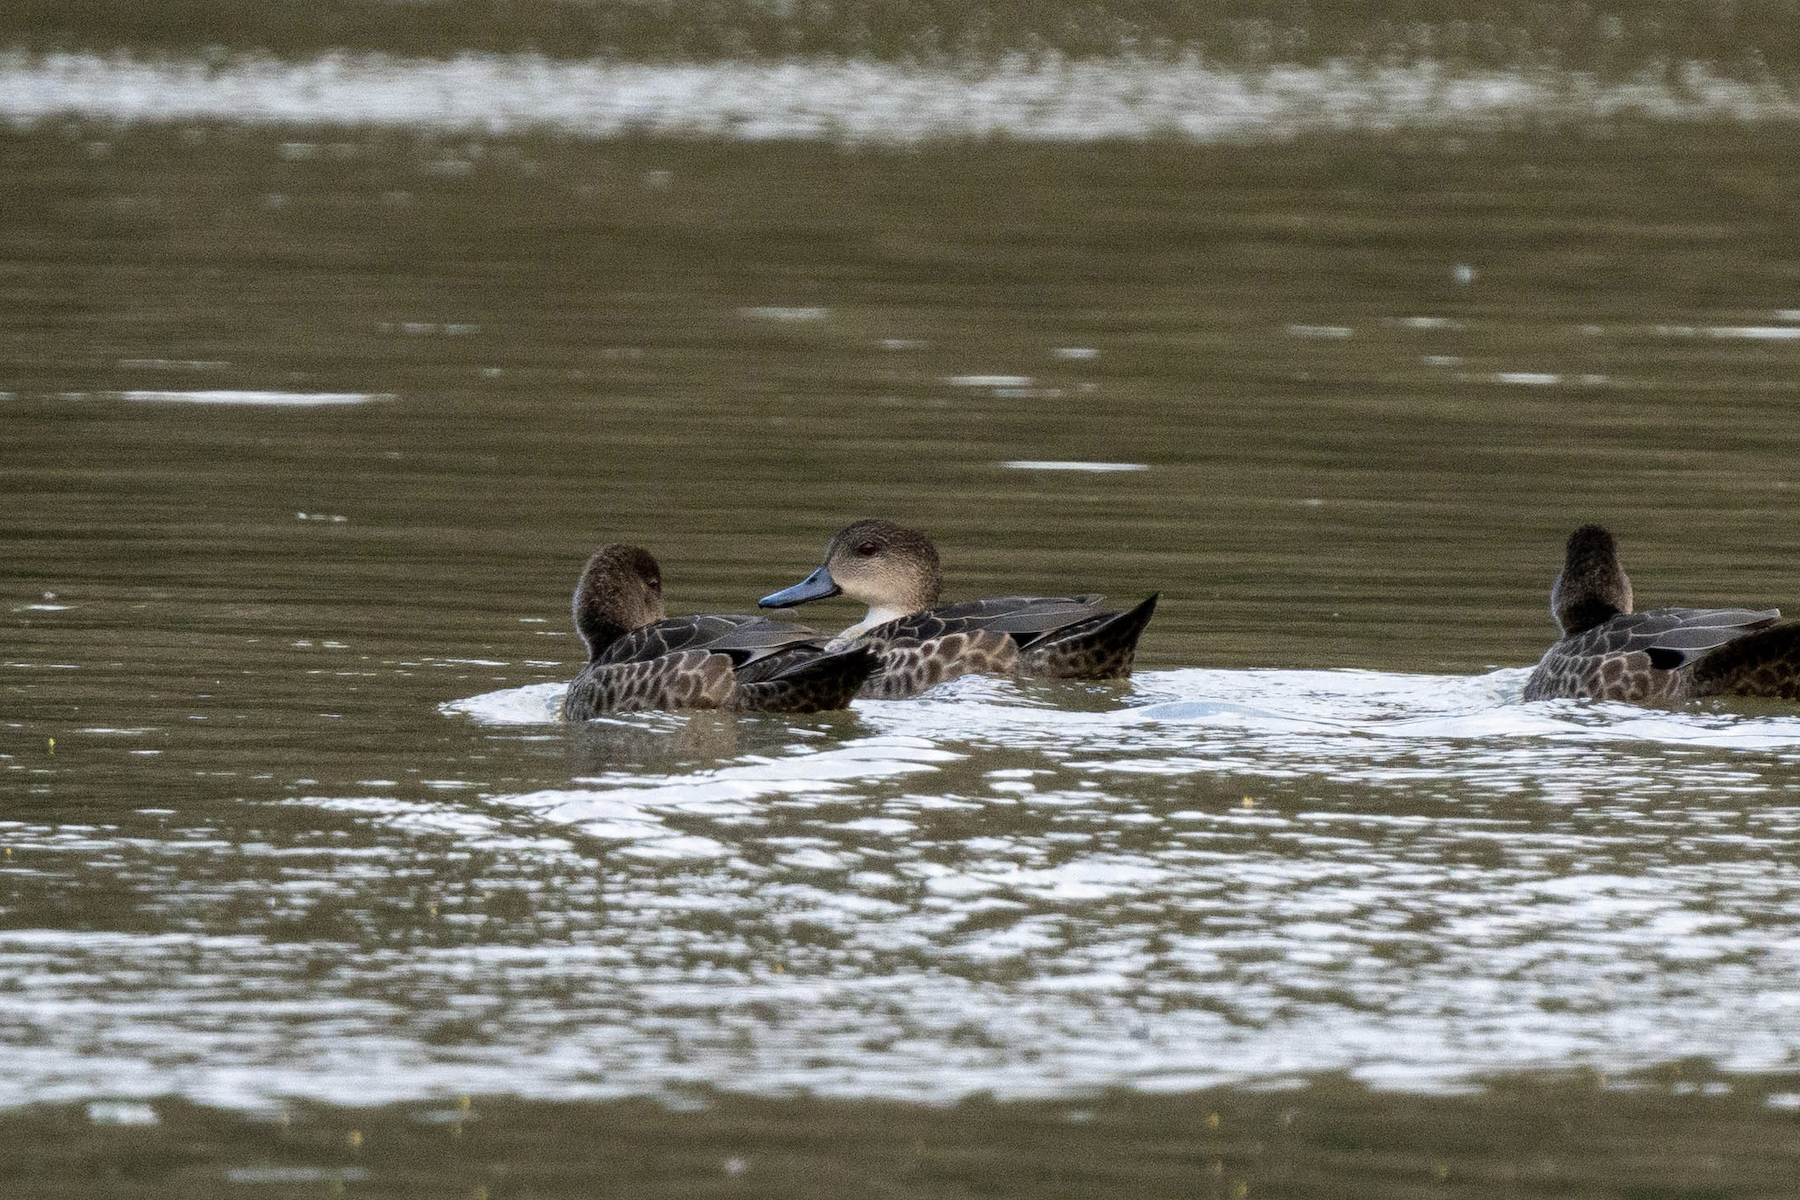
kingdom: Animalia
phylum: Chordata
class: Aves
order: Anseriformes
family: Anatidae
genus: Anas
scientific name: Anas gracilis
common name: Grey teal
